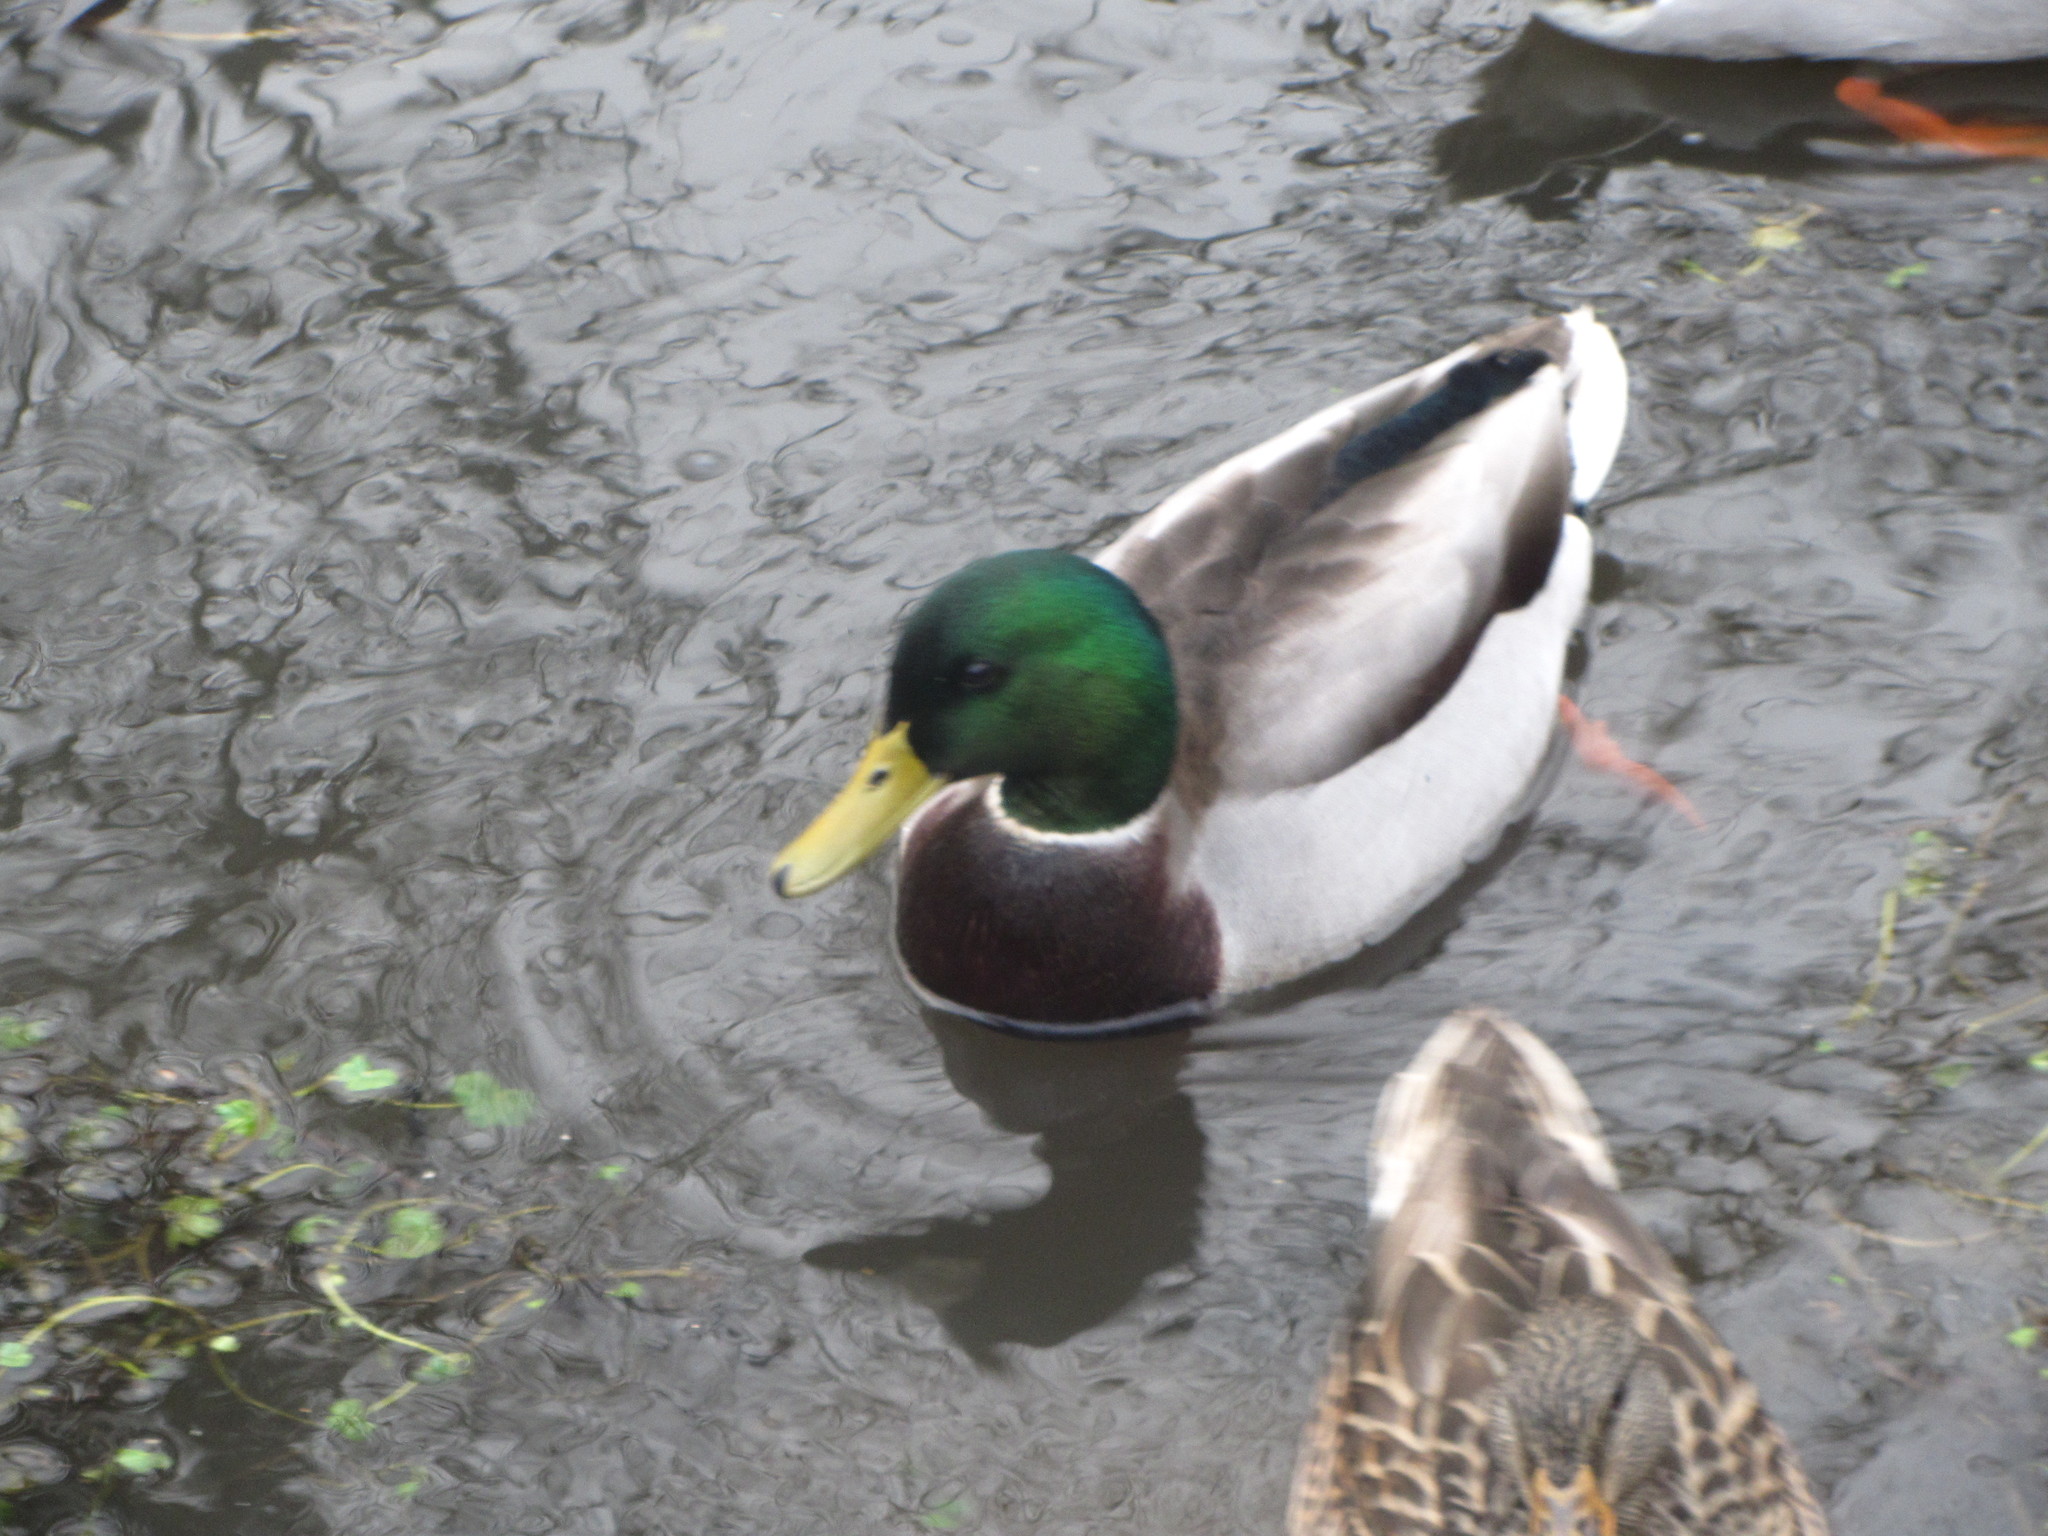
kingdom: Animalia
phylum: Chordata
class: Aves
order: Anseriformes
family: Anatidae
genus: Anas
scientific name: Anas platyrhynchos
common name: Mallard
